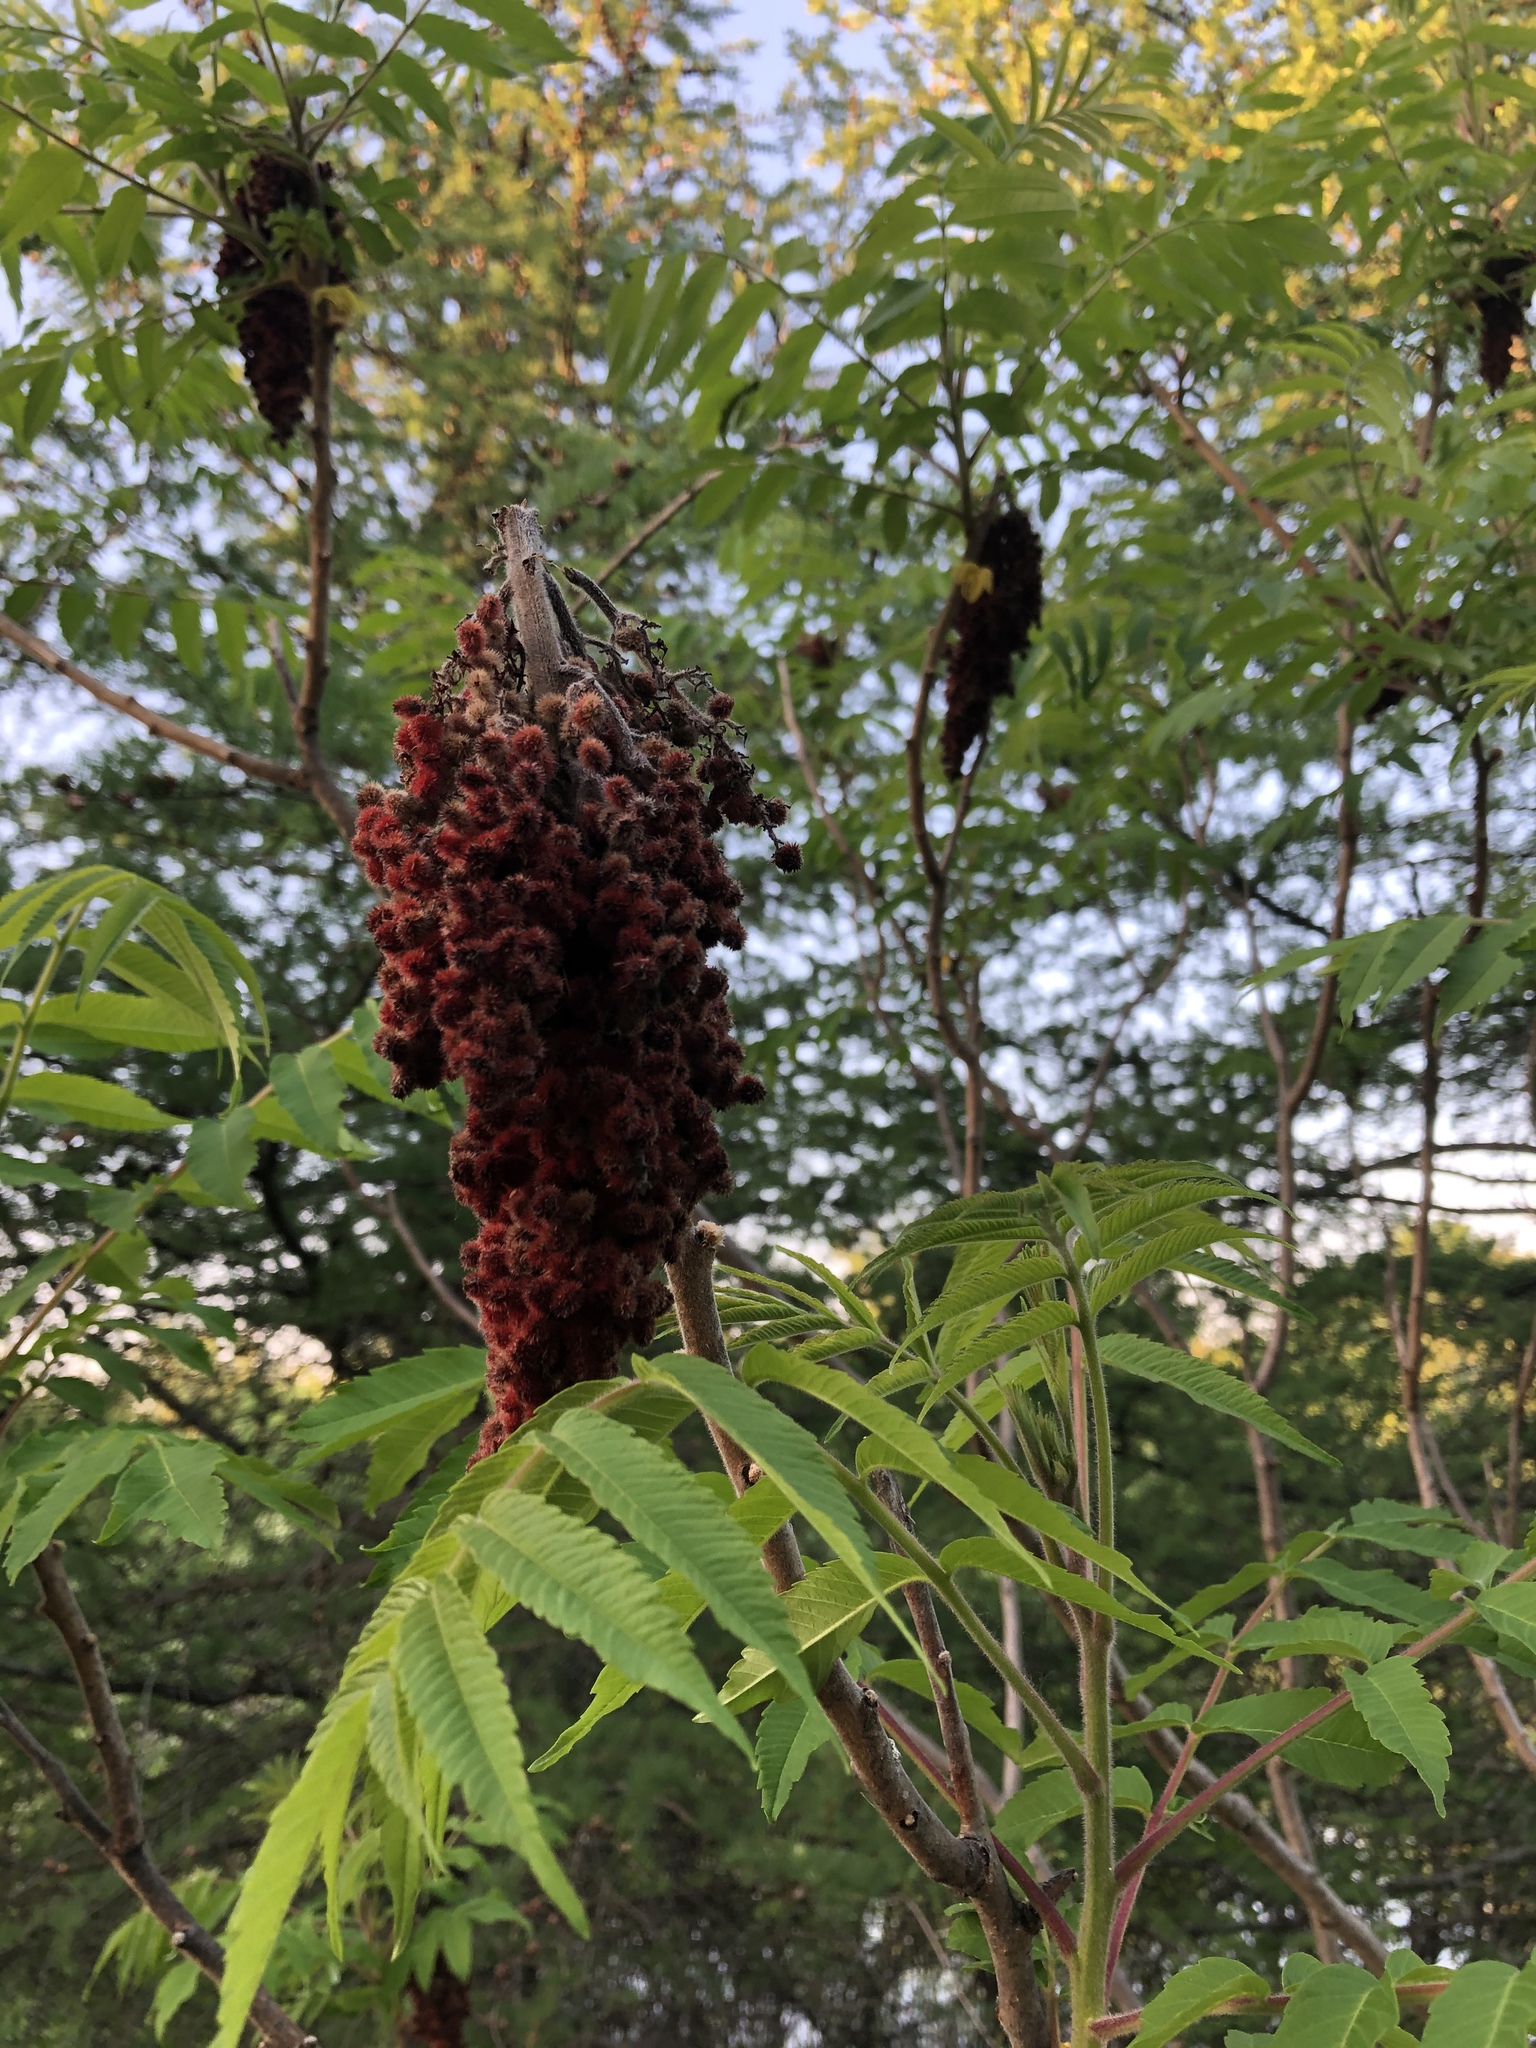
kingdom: Plantae
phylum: Tracheophyta
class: Magnoliopsida
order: Sapindales
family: Anacardiaceae
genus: Rhus
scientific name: Rhus typhina
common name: Staghorn sumac
